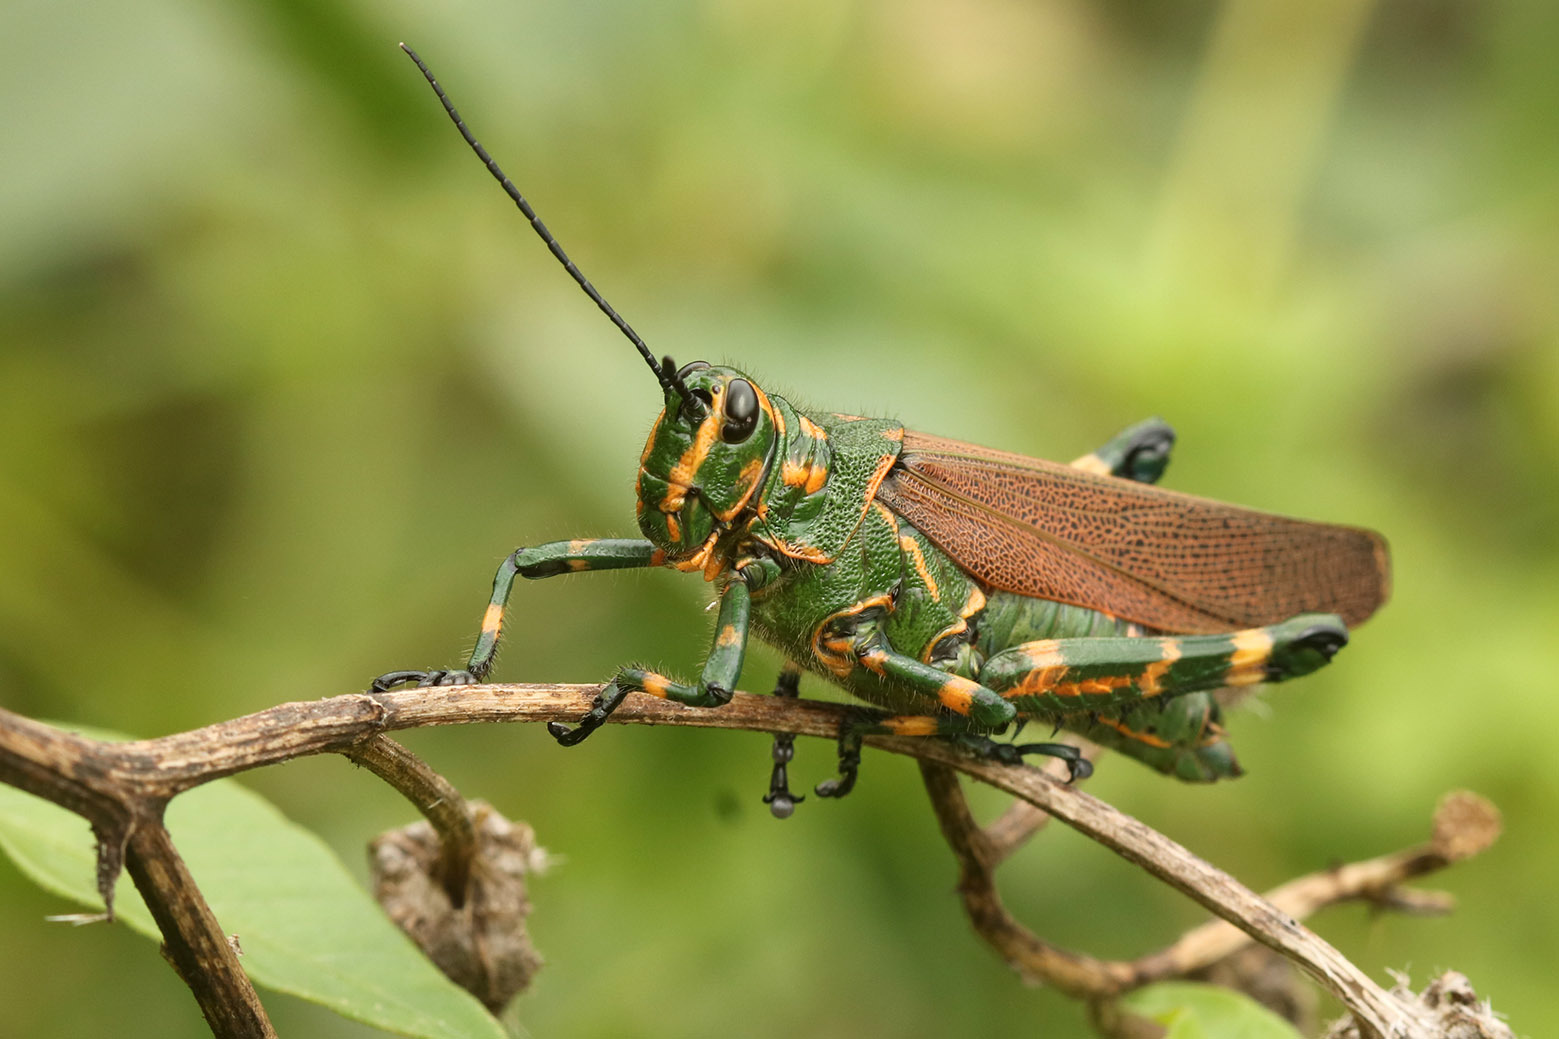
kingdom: Animalia
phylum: Arthropoda
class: Insecta
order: Orthoptera
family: Romaleidae
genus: Chromacris
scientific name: Chromacris speciosa
